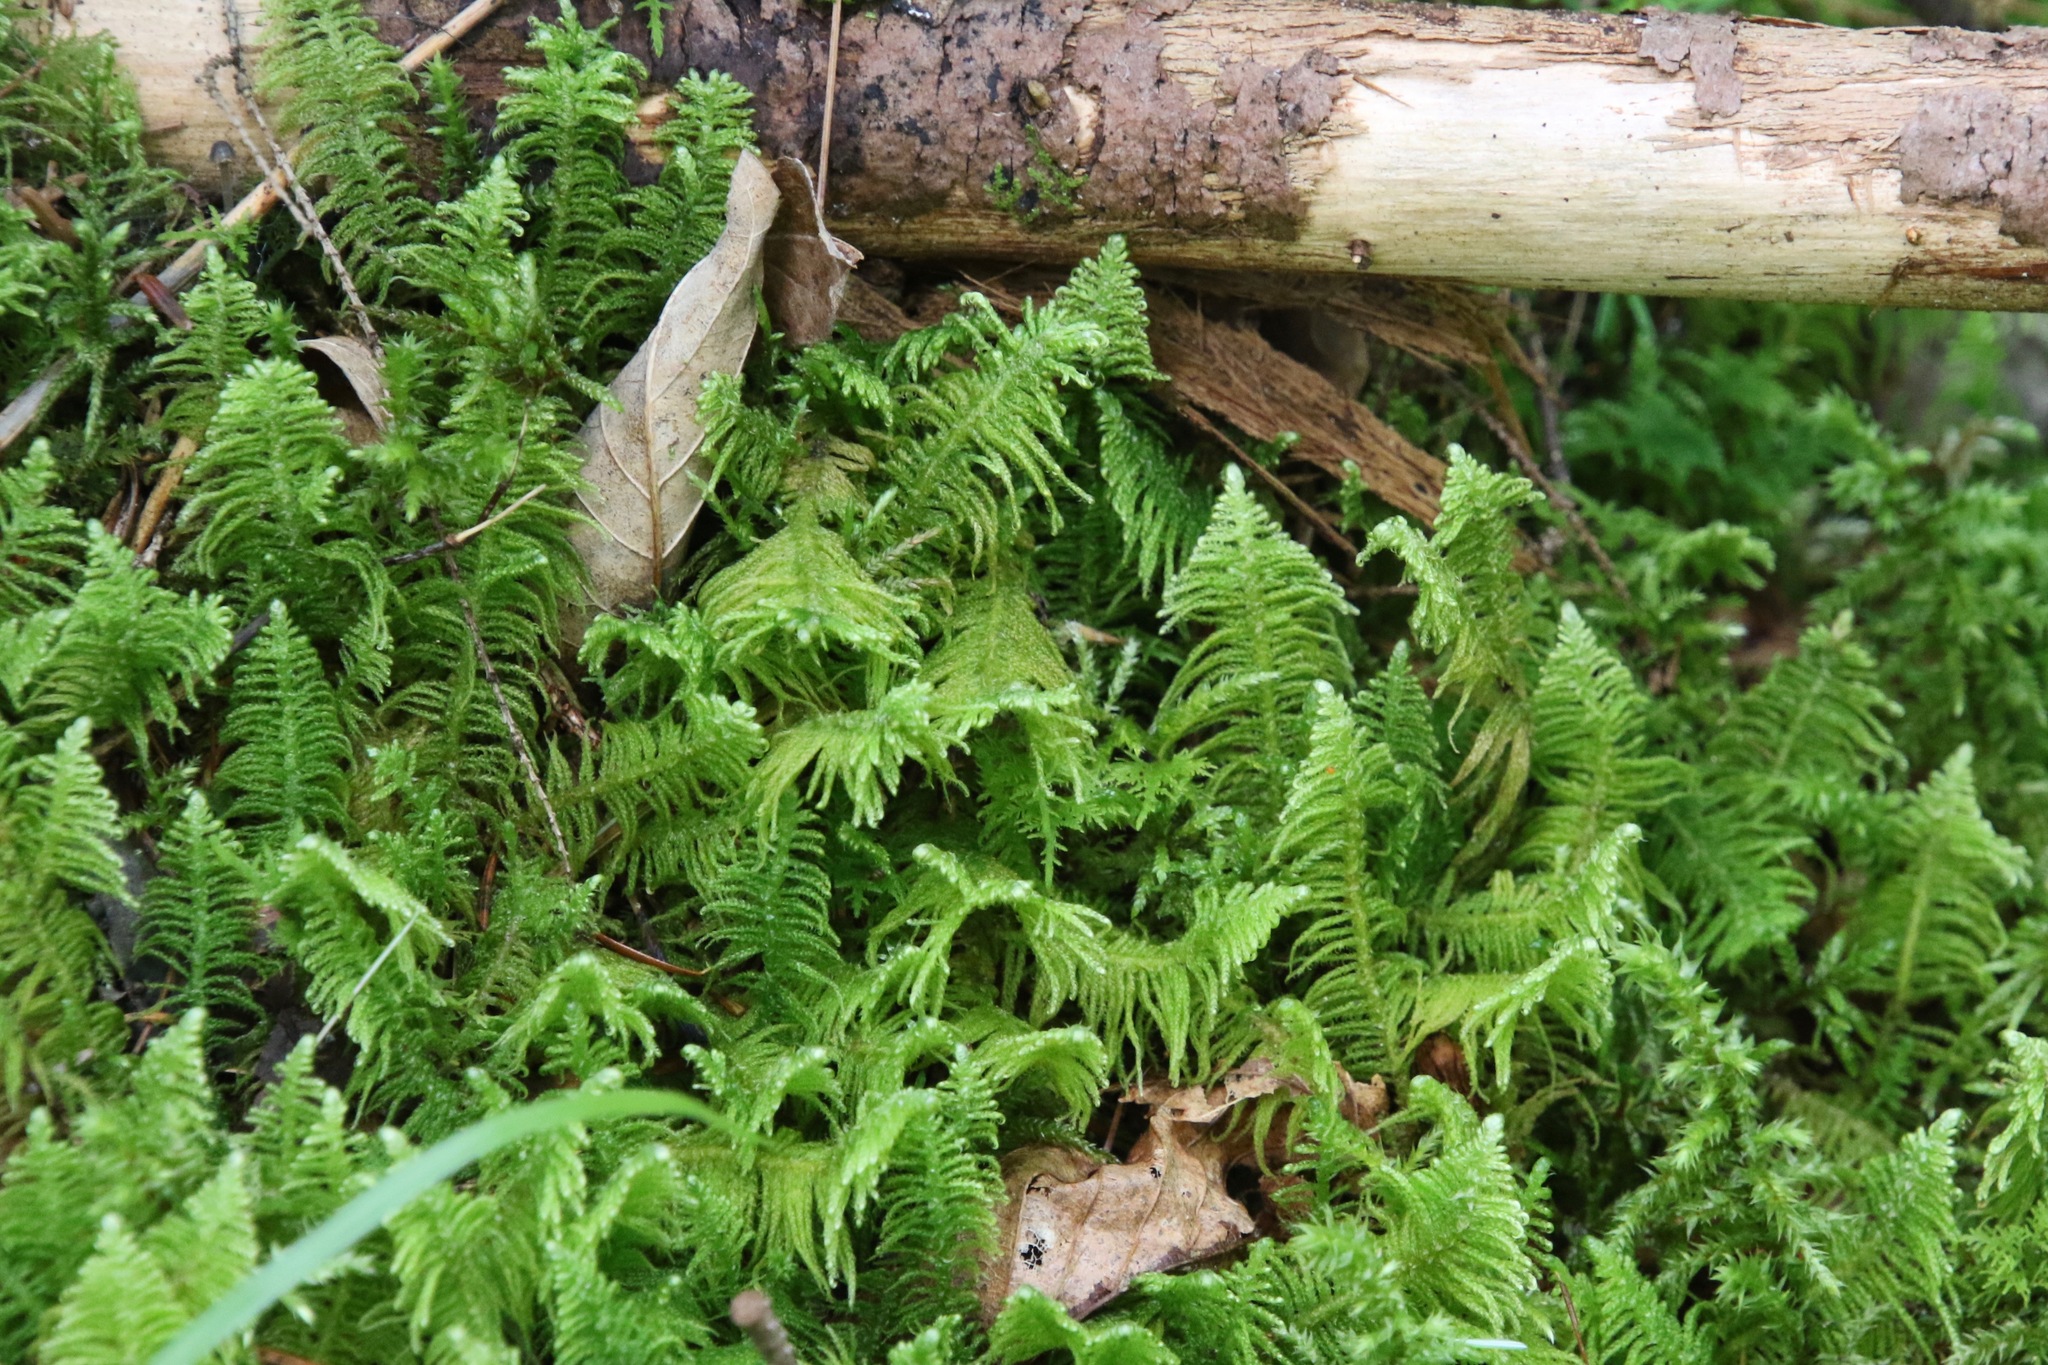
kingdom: Plantae
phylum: Bryophyta
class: Bryopsida
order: Hypnales
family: Pylaisiaceae
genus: Ptilium
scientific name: Ptilium crista-castrensis
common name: Knight's plume moss
